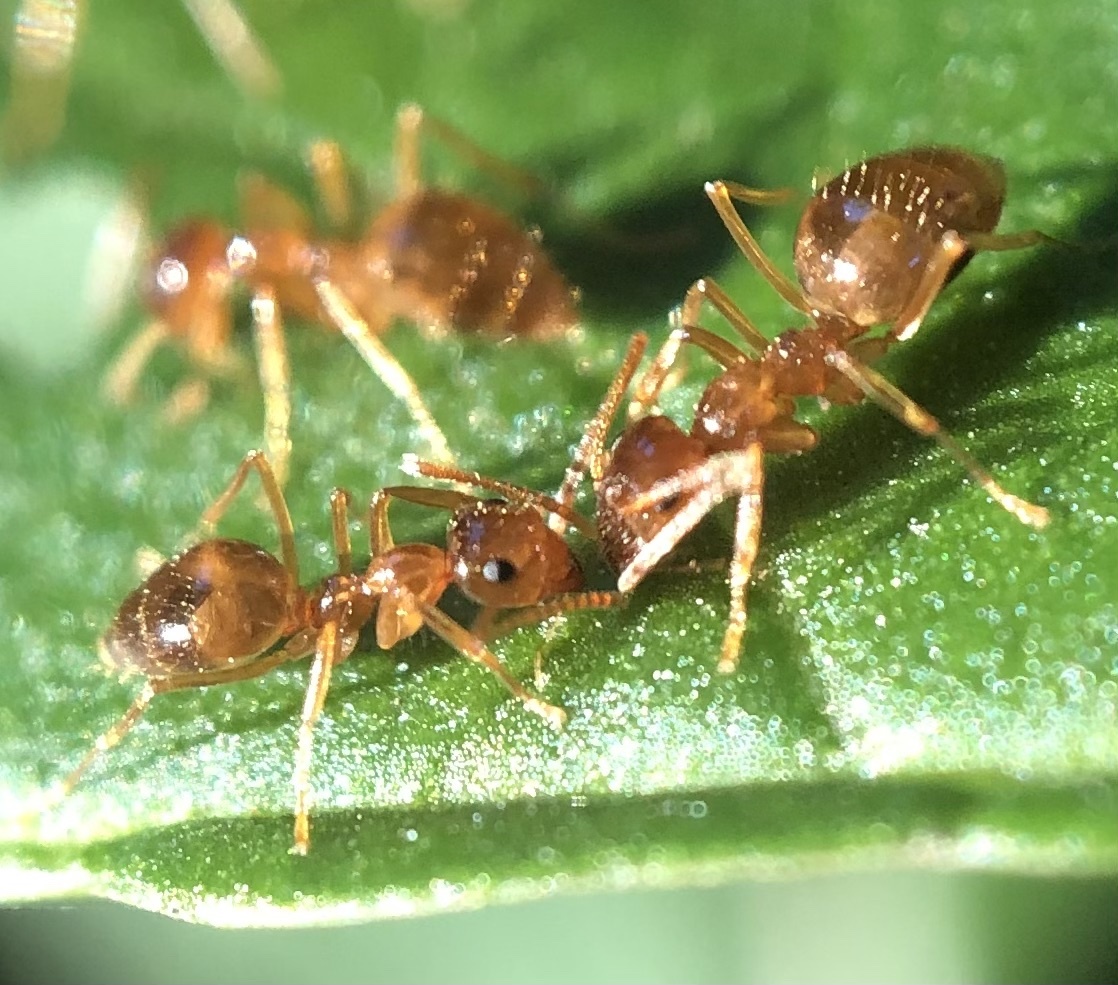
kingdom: Animalia
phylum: Arthropoda
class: Insecta
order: Hymenoptera
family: Formicidae
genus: Prenolepis
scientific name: Prenolepis imparis
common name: Small honey ant
